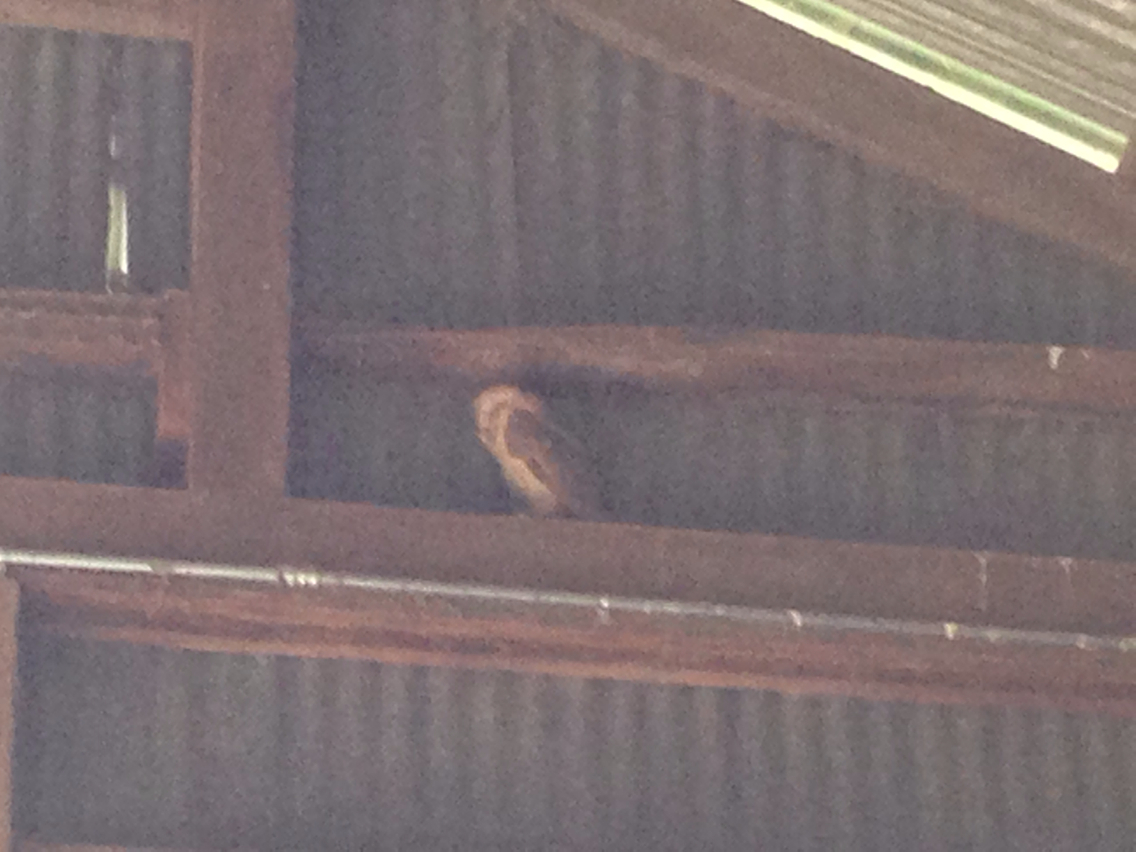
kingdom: Animalia
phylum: Chordata
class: Aves
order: Strigiformes
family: Tytonidae
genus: Tyto
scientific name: Tyto alba
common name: Barn owl
